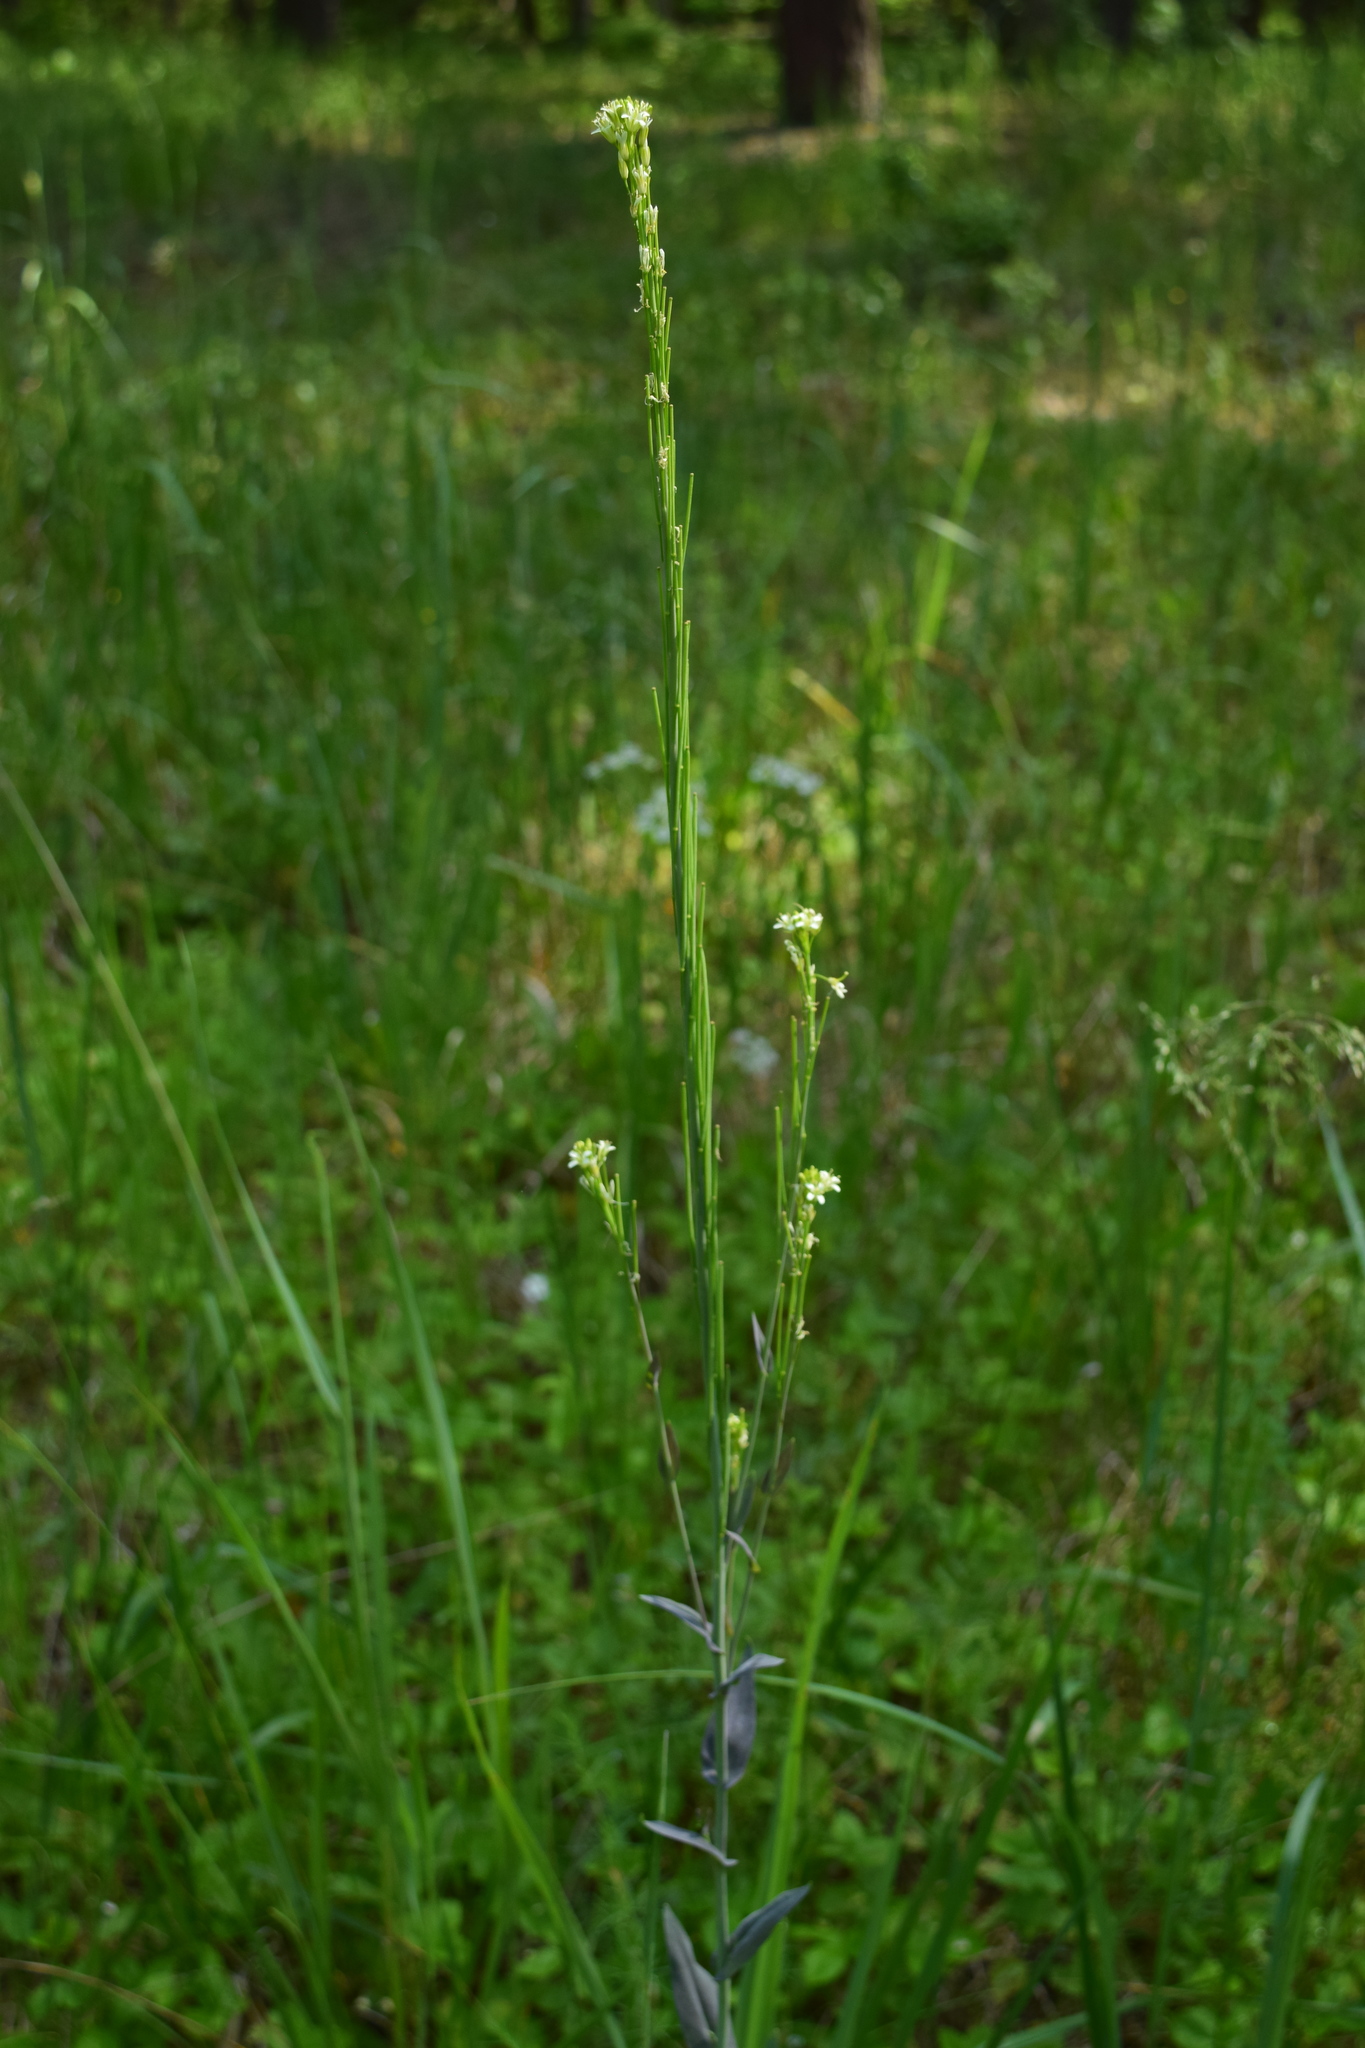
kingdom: Plantae
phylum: Tracheophyta
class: Magnoliopsida
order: Brassicales
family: Brassicaceae
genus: Turritis
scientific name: Turritis glabra
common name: Tower rockcress
